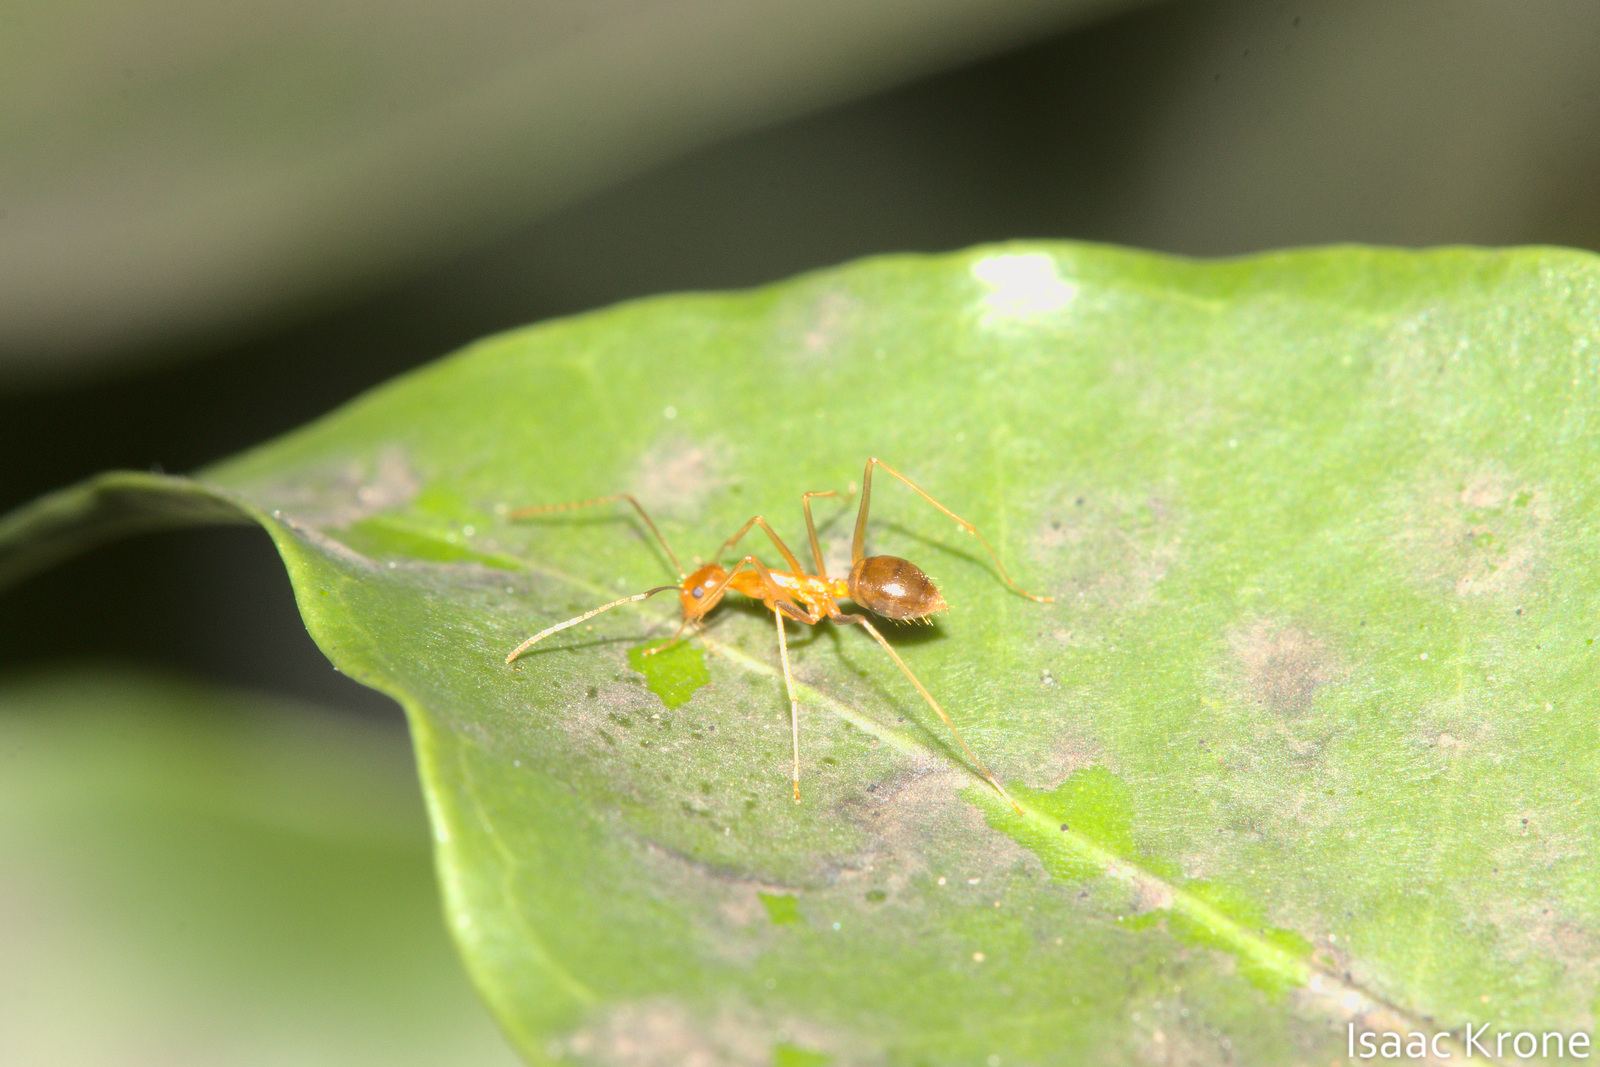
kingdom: Animalia
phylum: Arthropoda
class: Insecta
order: Hymenoptera
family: Formicidae
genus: Anoplolepis
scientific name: Anoplolepis gracilipes
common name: Ant
